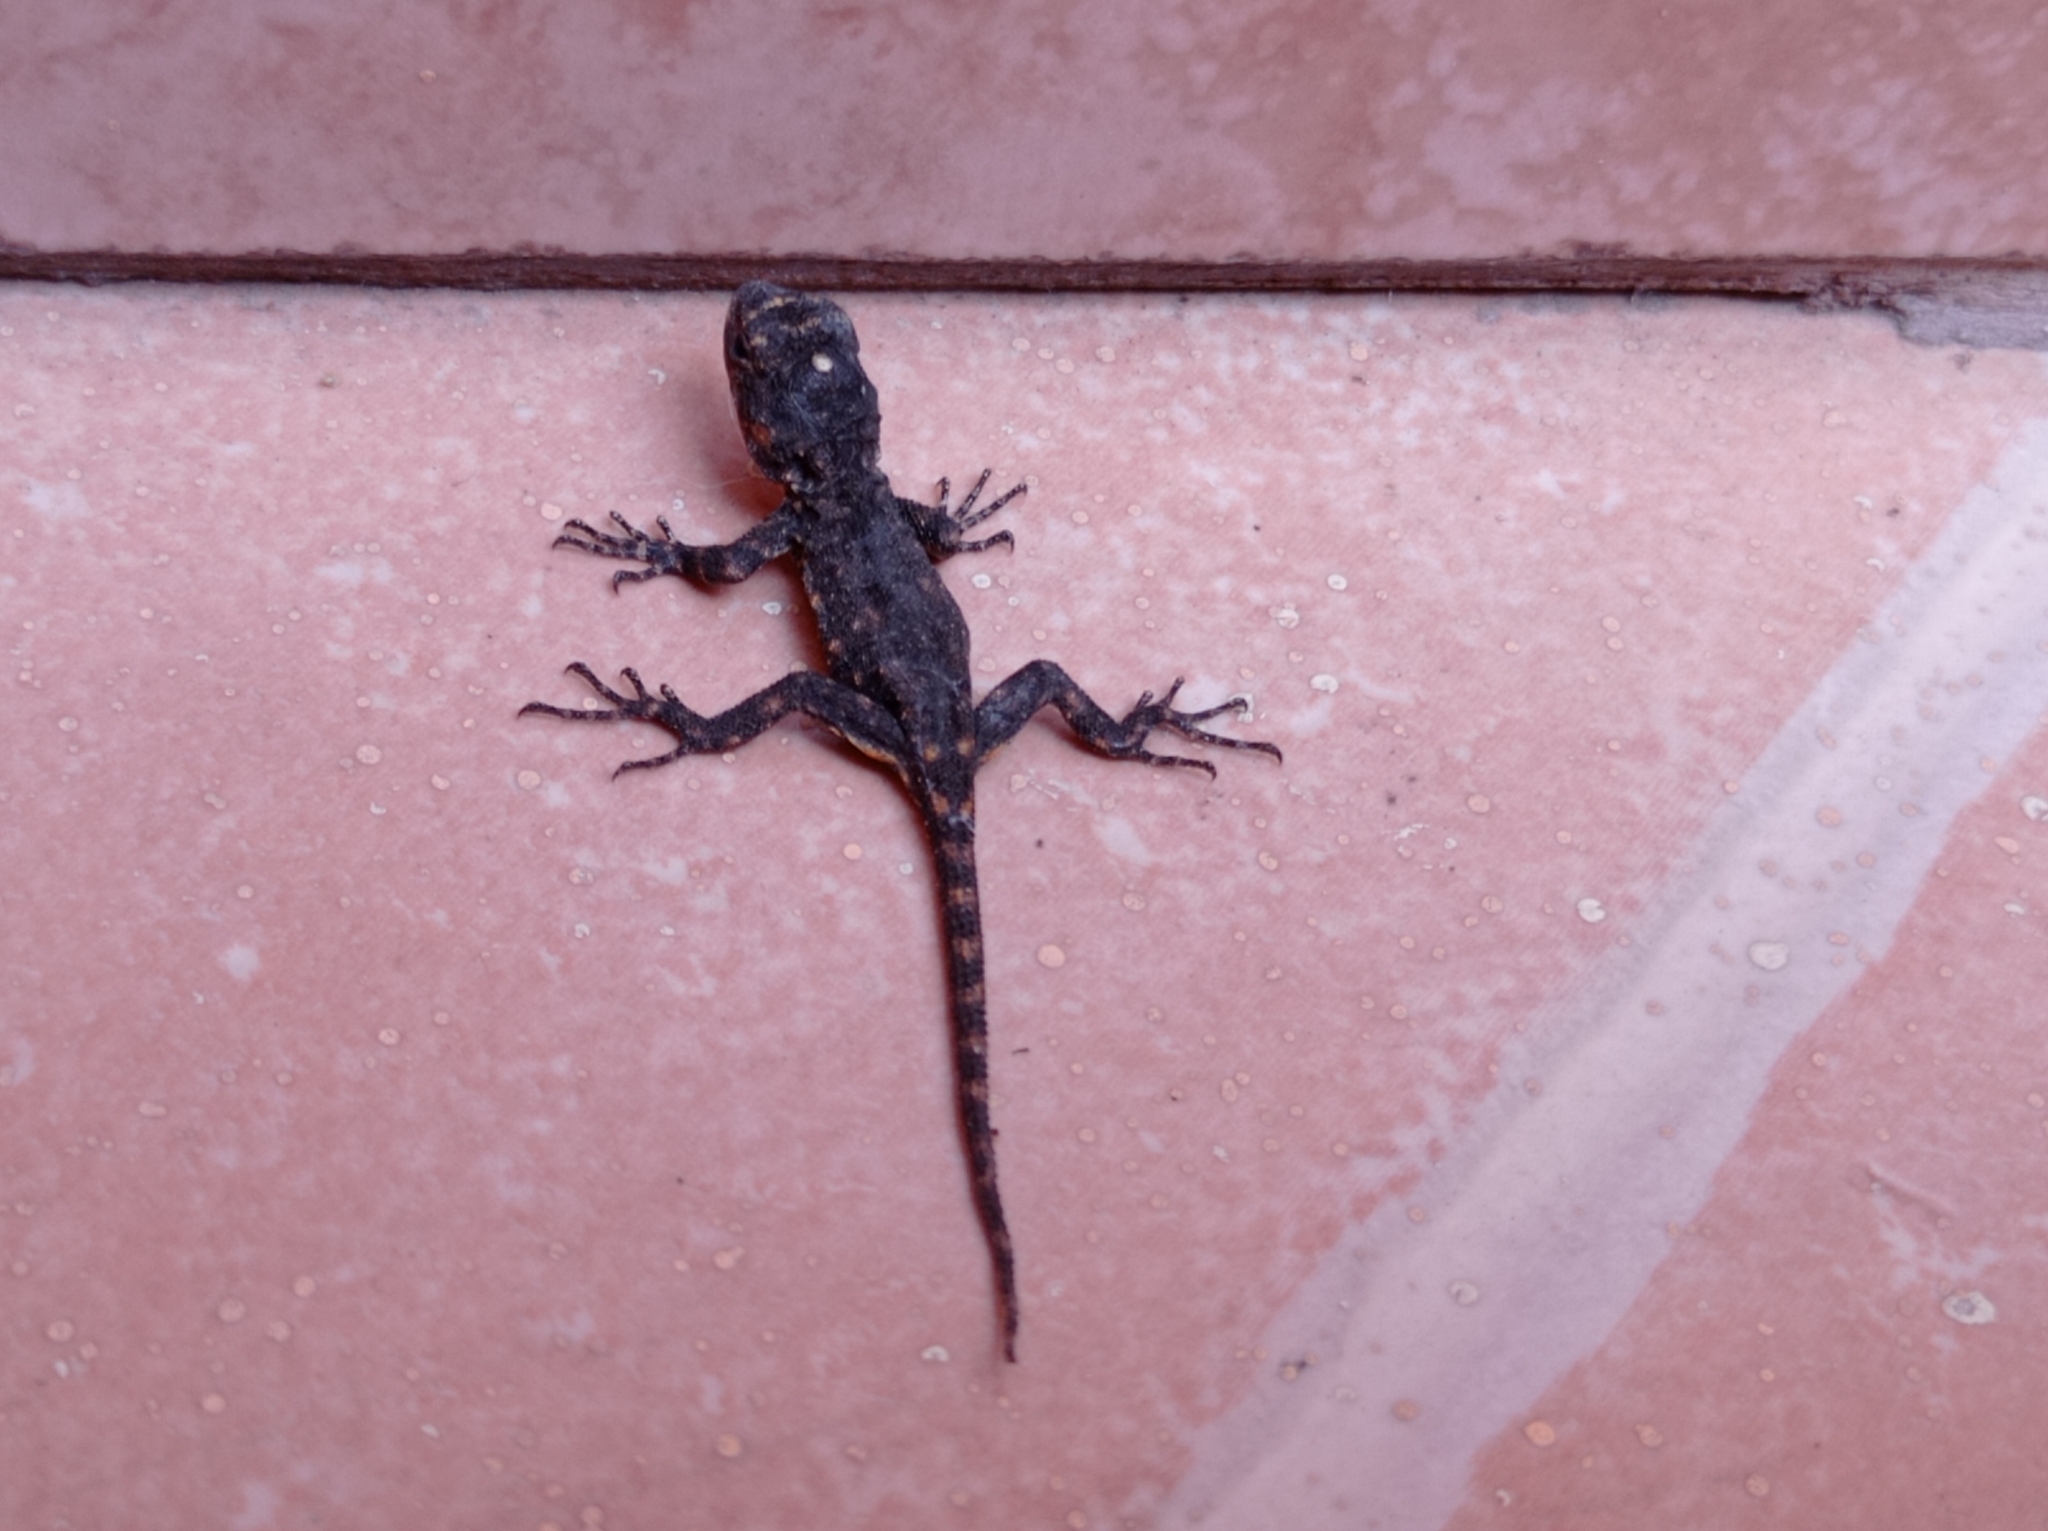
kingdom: Animalia
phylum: Chordata
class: Squamata
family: Phrynosomatidae
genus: Sceloporus
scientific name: Sceloporus grammicus
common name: Mesquite lizard
